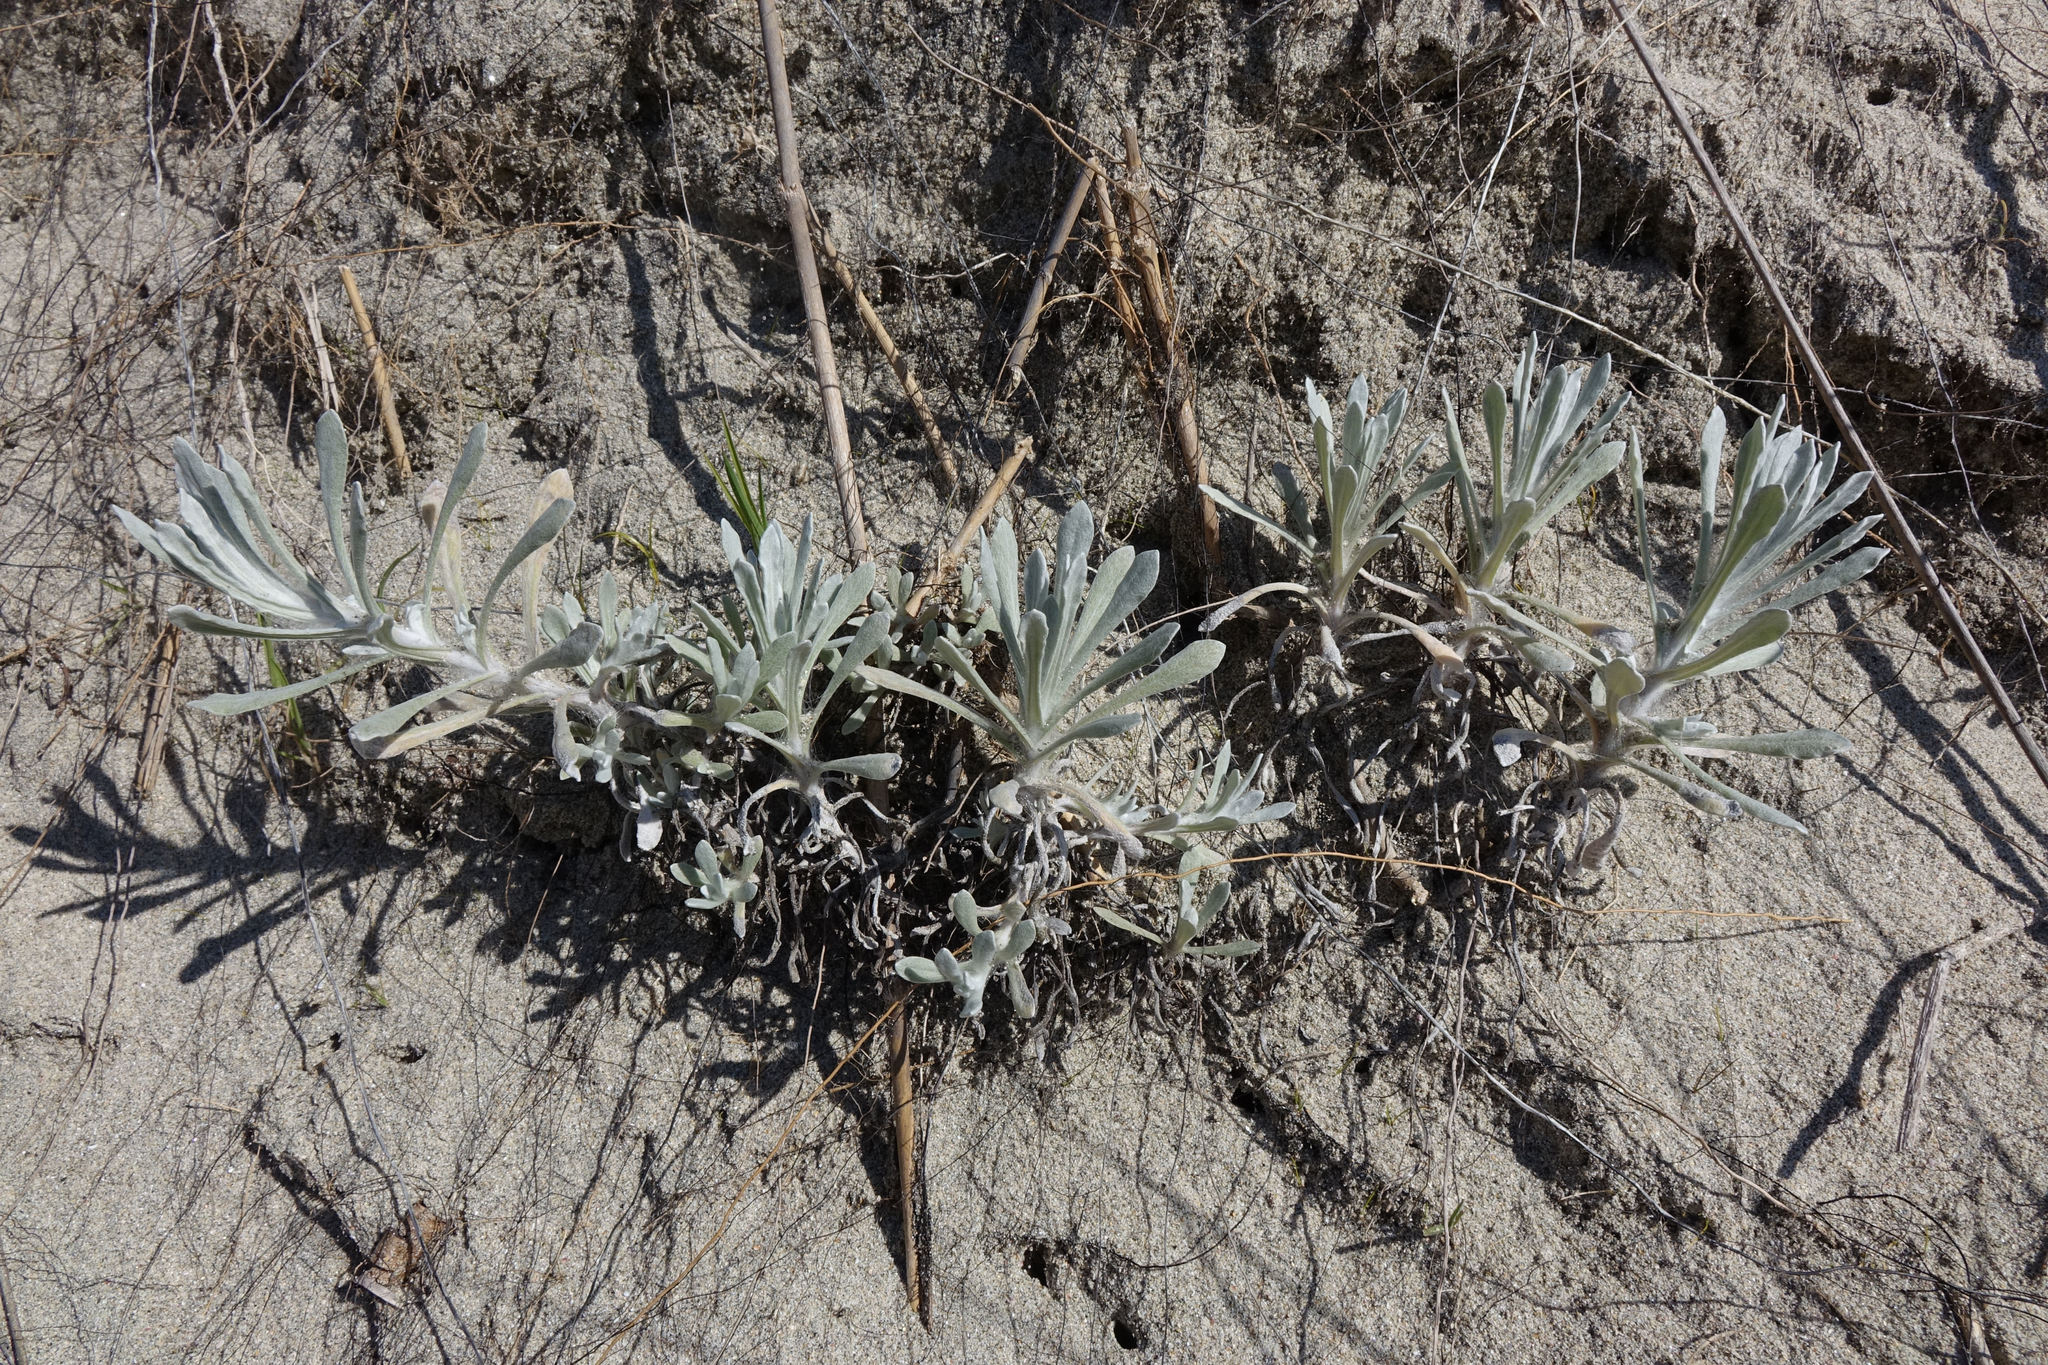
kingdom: Plantae
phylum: Tracheophyta
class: Magnoliopsida
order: Asterales
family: Asteraceae
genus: Helichrysum
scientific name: Helichrysum luteoalbum
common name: Daisy
